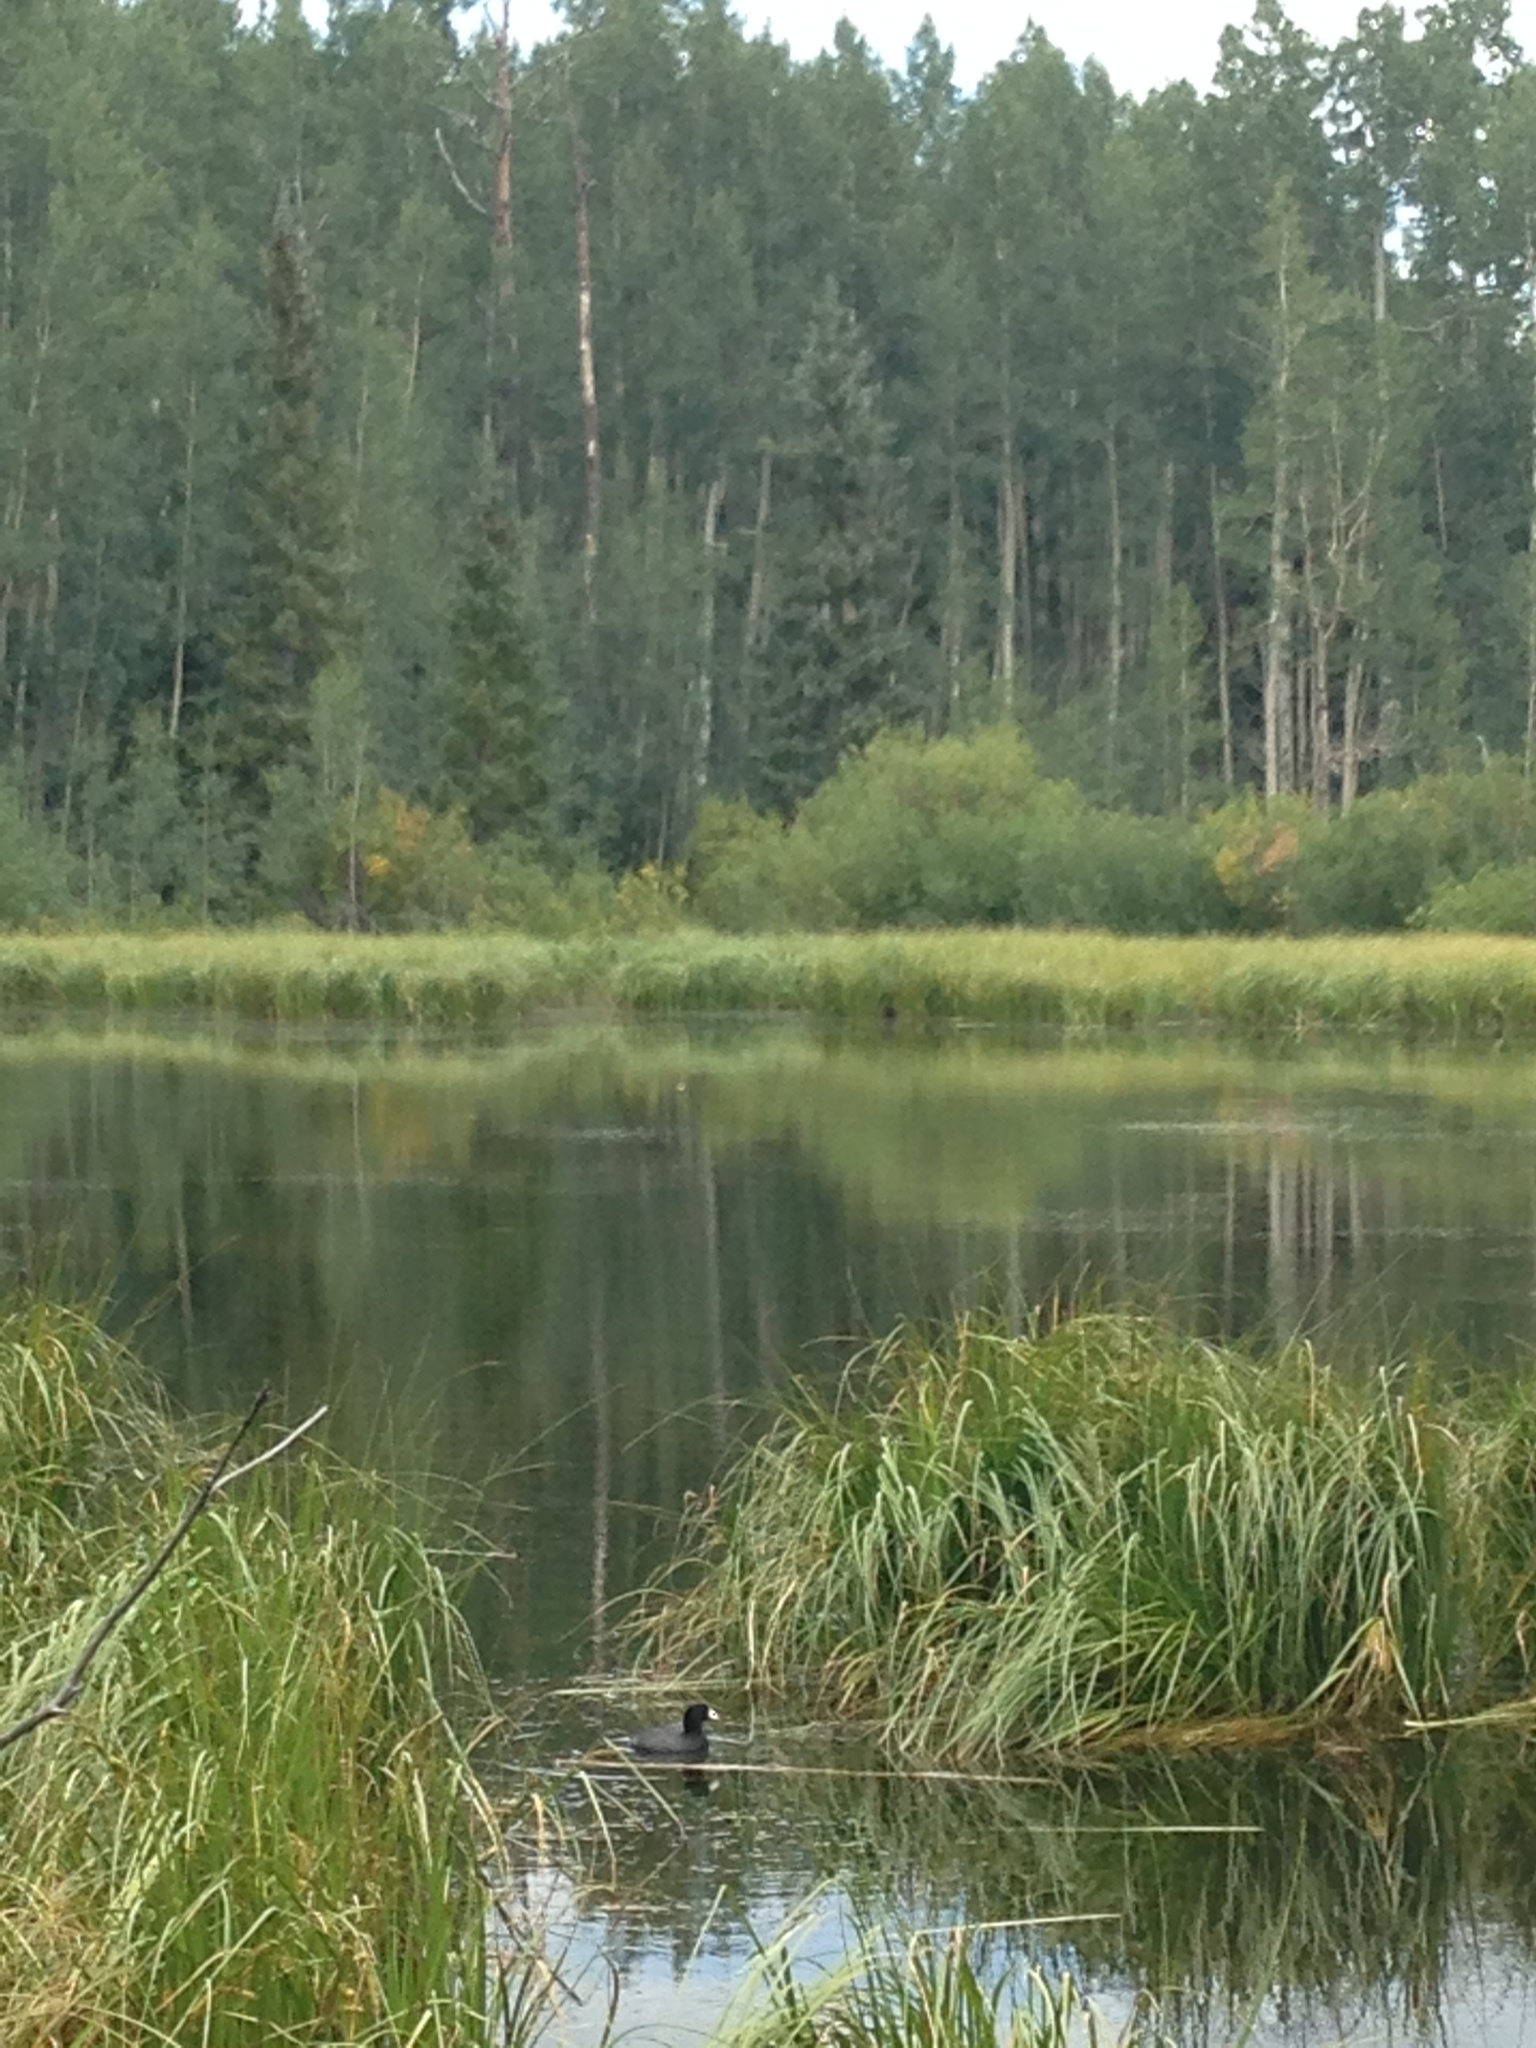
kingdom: Animalia
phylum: Chordata
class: Aves
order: Gruiformes
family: Rallidae
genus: Fulica
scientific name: Fulica americana
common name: American coot
